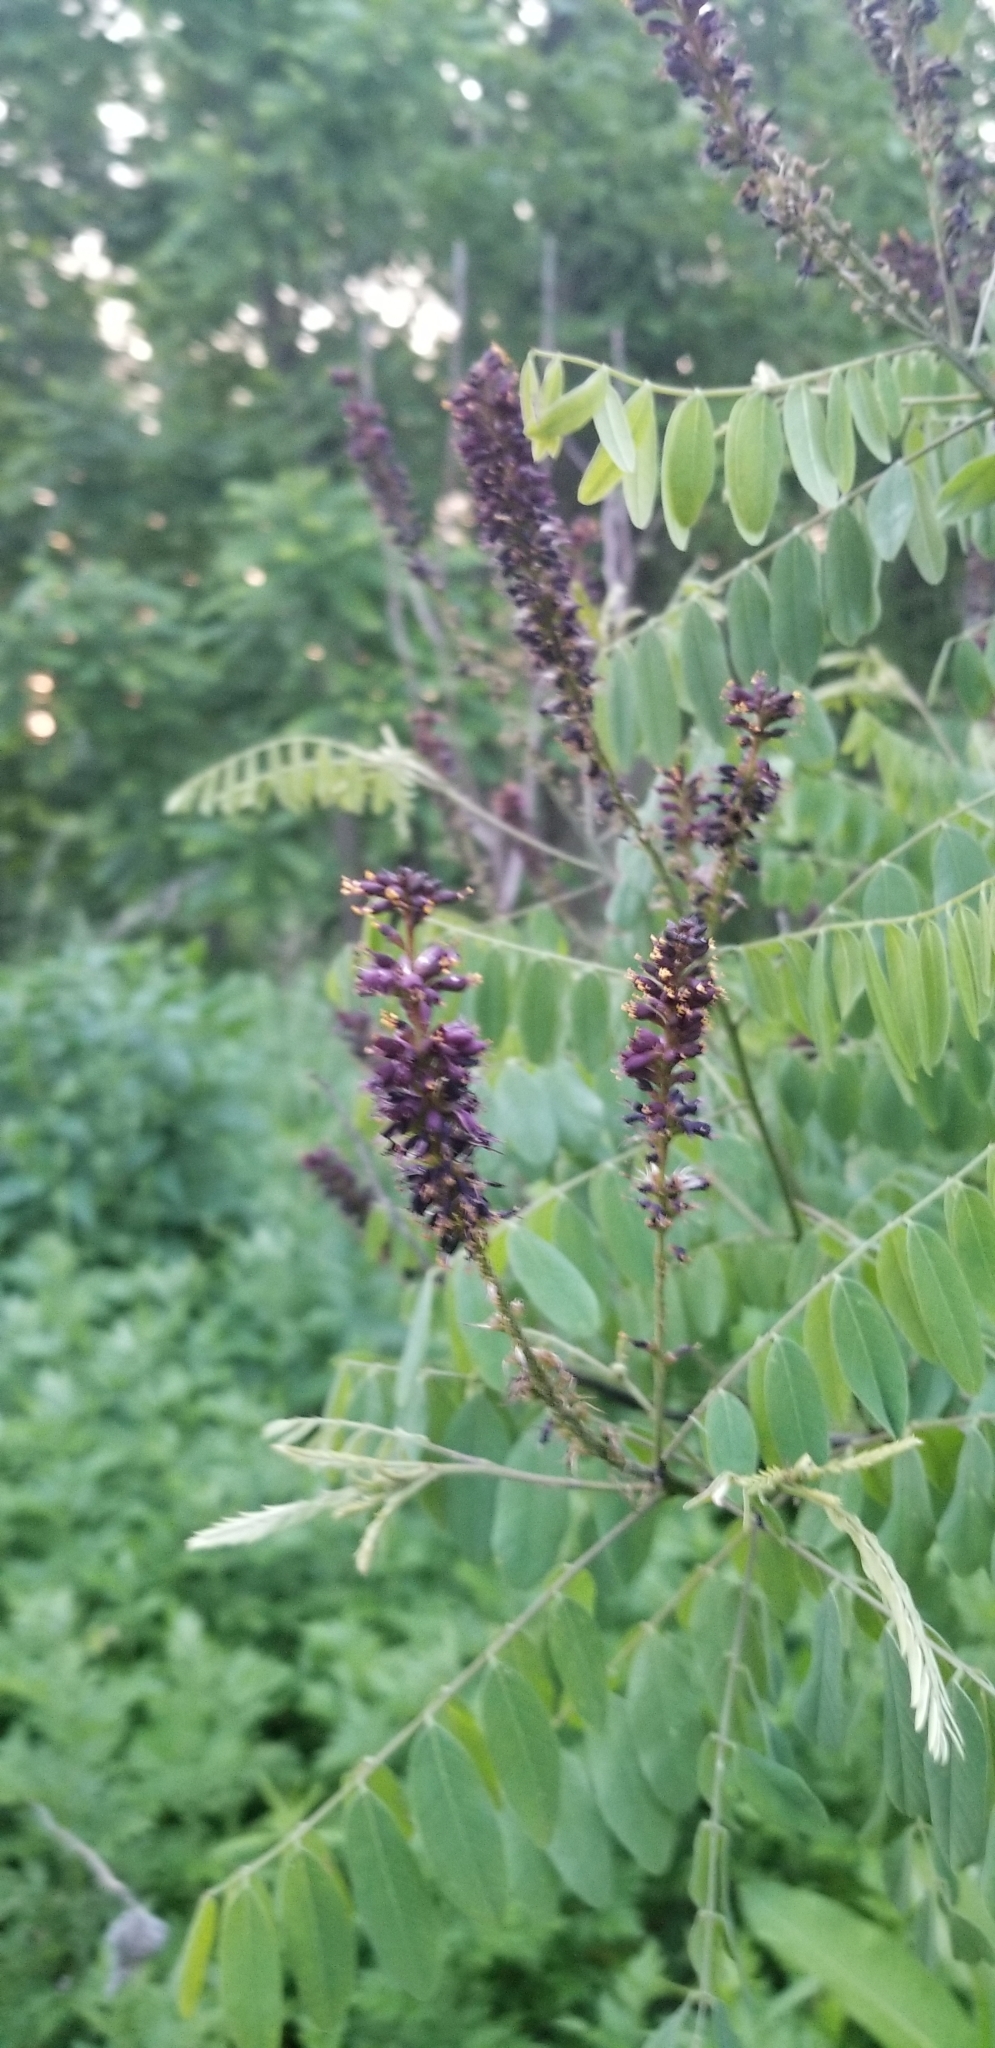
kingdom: Plantae
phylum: Tracheophyta
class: Magnoliopsida
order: Fabales
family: Fabaceae
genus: Amorpha
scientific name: Amorpha fruticosa
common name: False indigo
